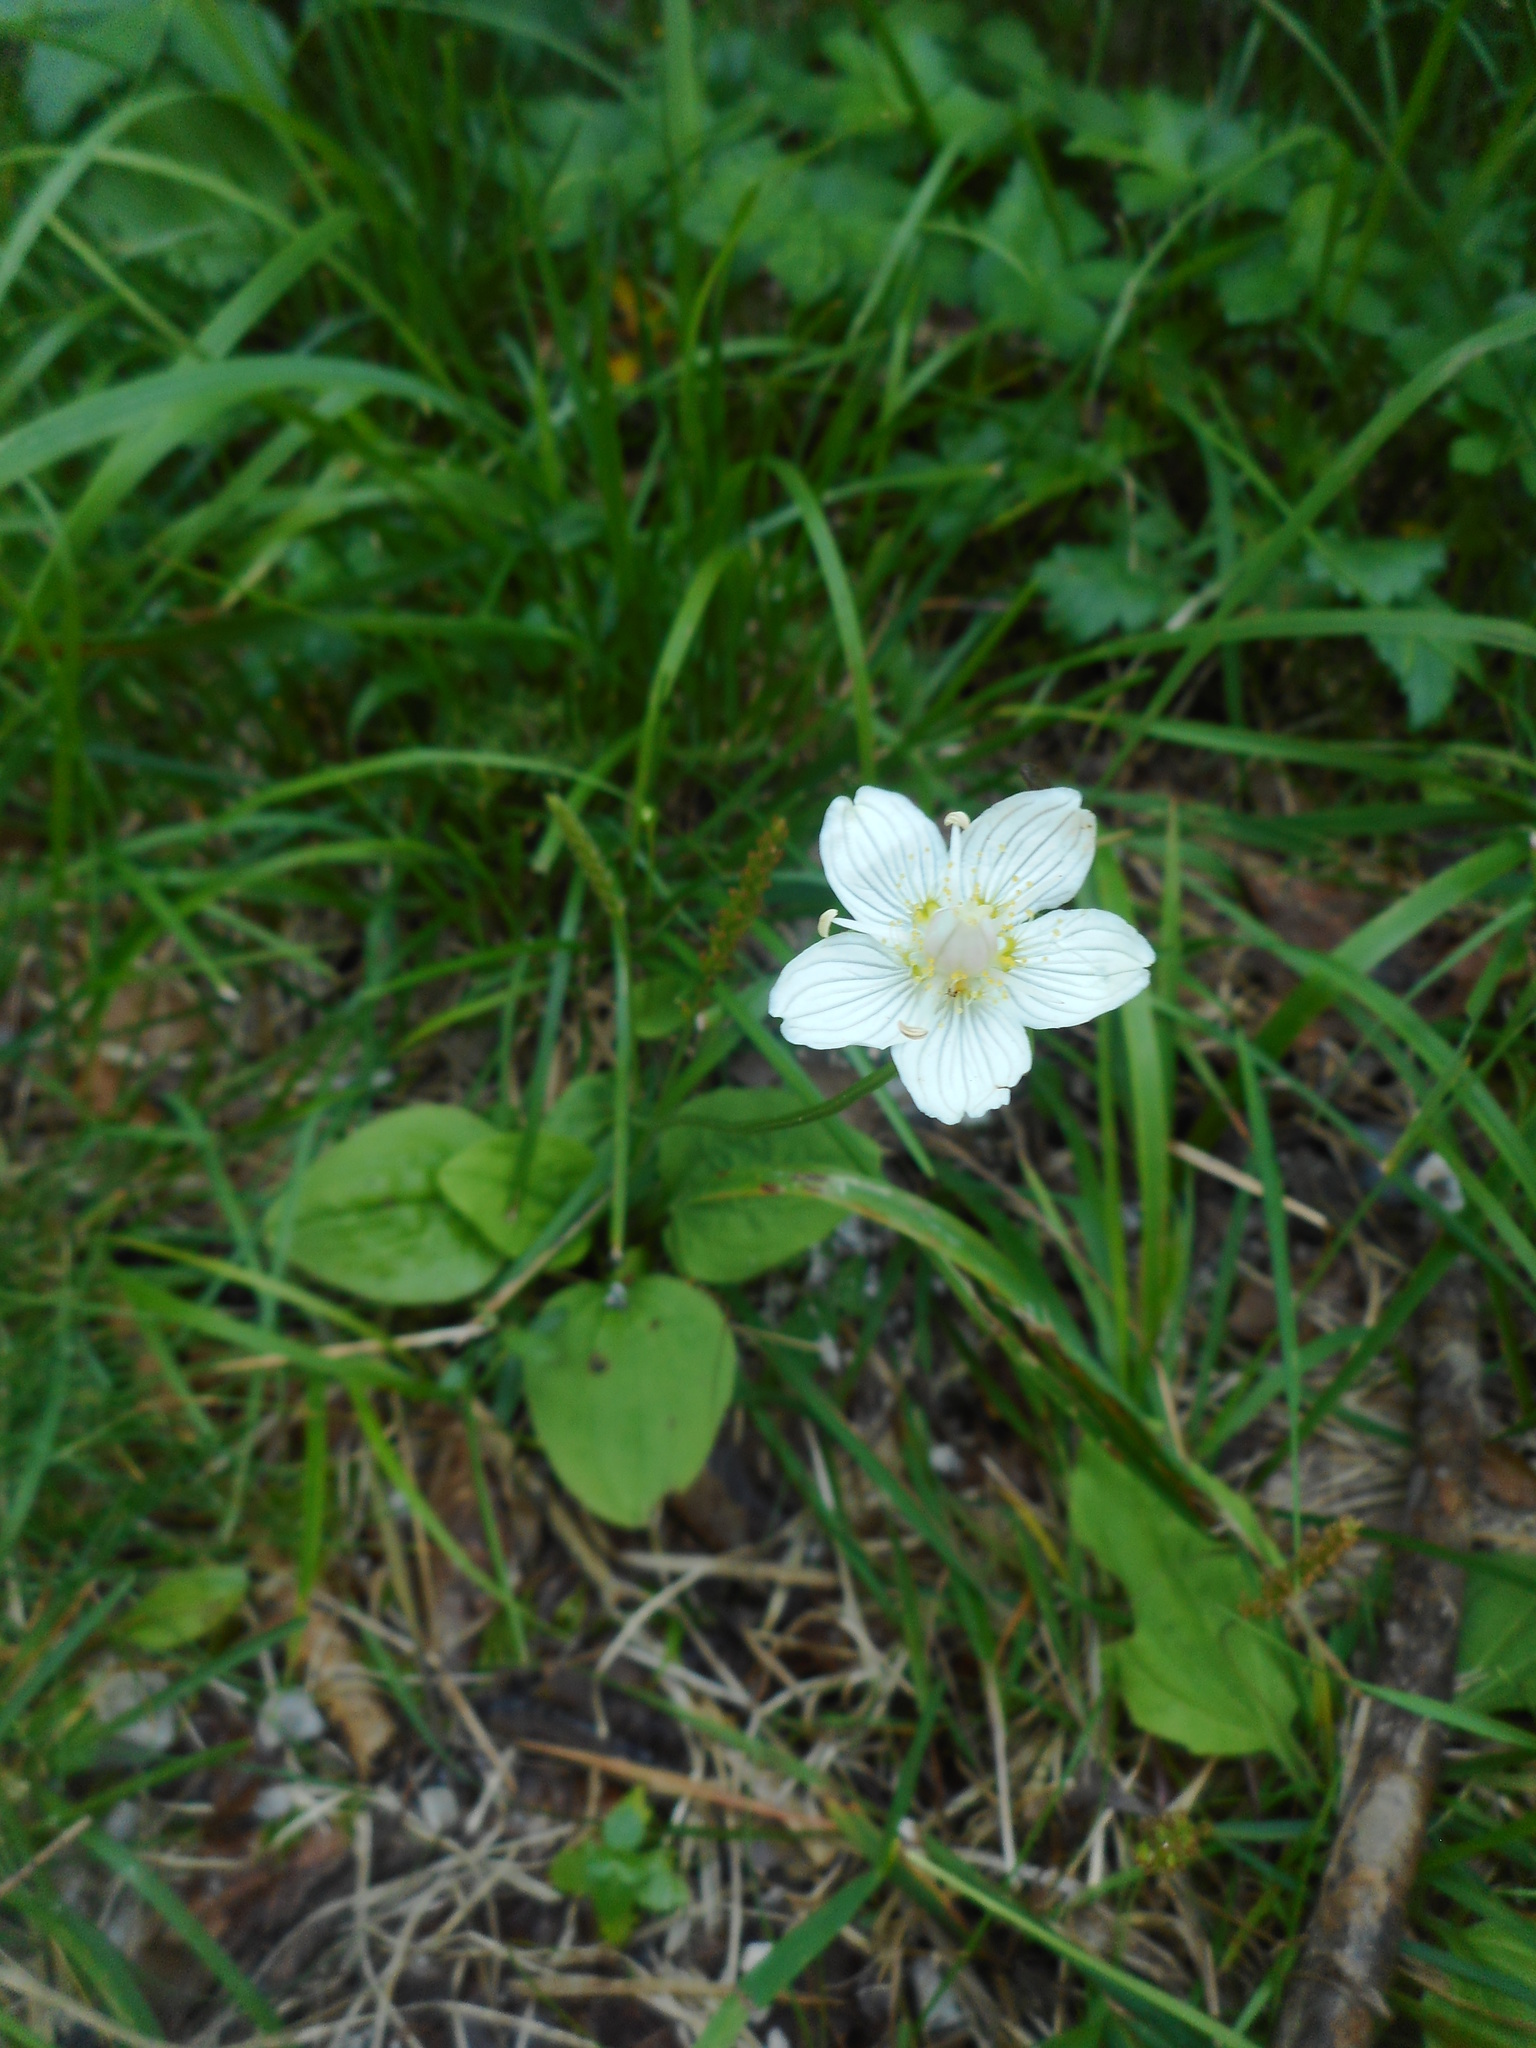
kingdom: Plantae
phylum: Tracheophyta
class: Magnoliopsida
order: Celastrales
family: Parnassiaceae
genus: Parnassia
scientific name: Parnassia palustris
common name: Grass-of-parnassus
